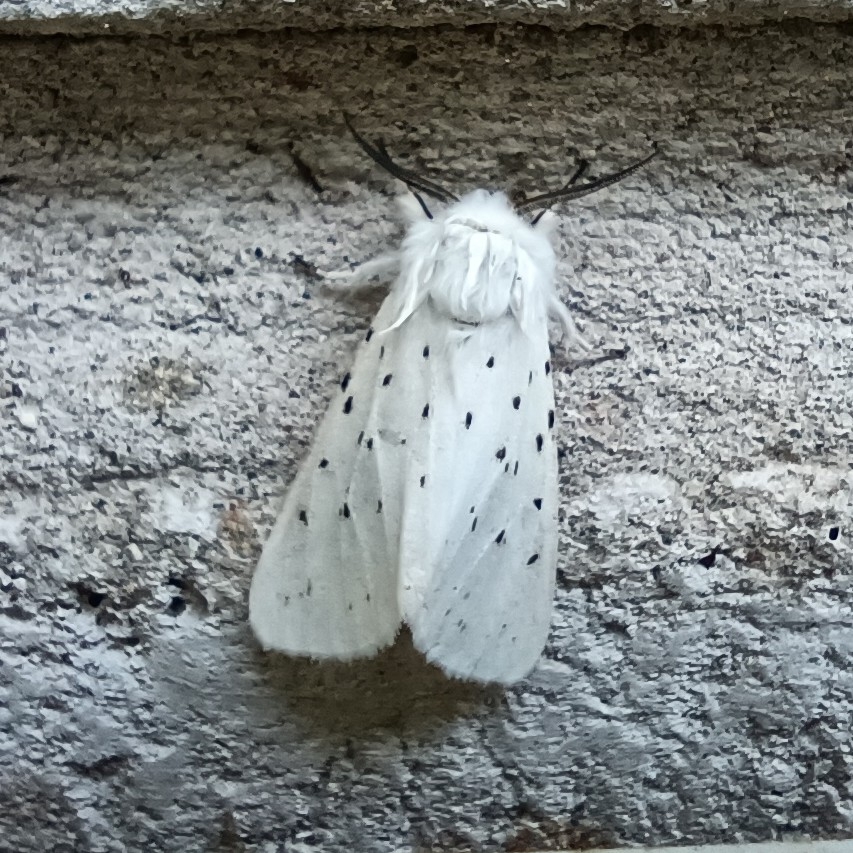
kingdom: Animalia
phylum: Arthropoda
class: Insecta
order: Lepidoptera
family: Erebidae
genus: Spilosoma
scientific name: Spilosoma lubricipeda
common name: White ermine
